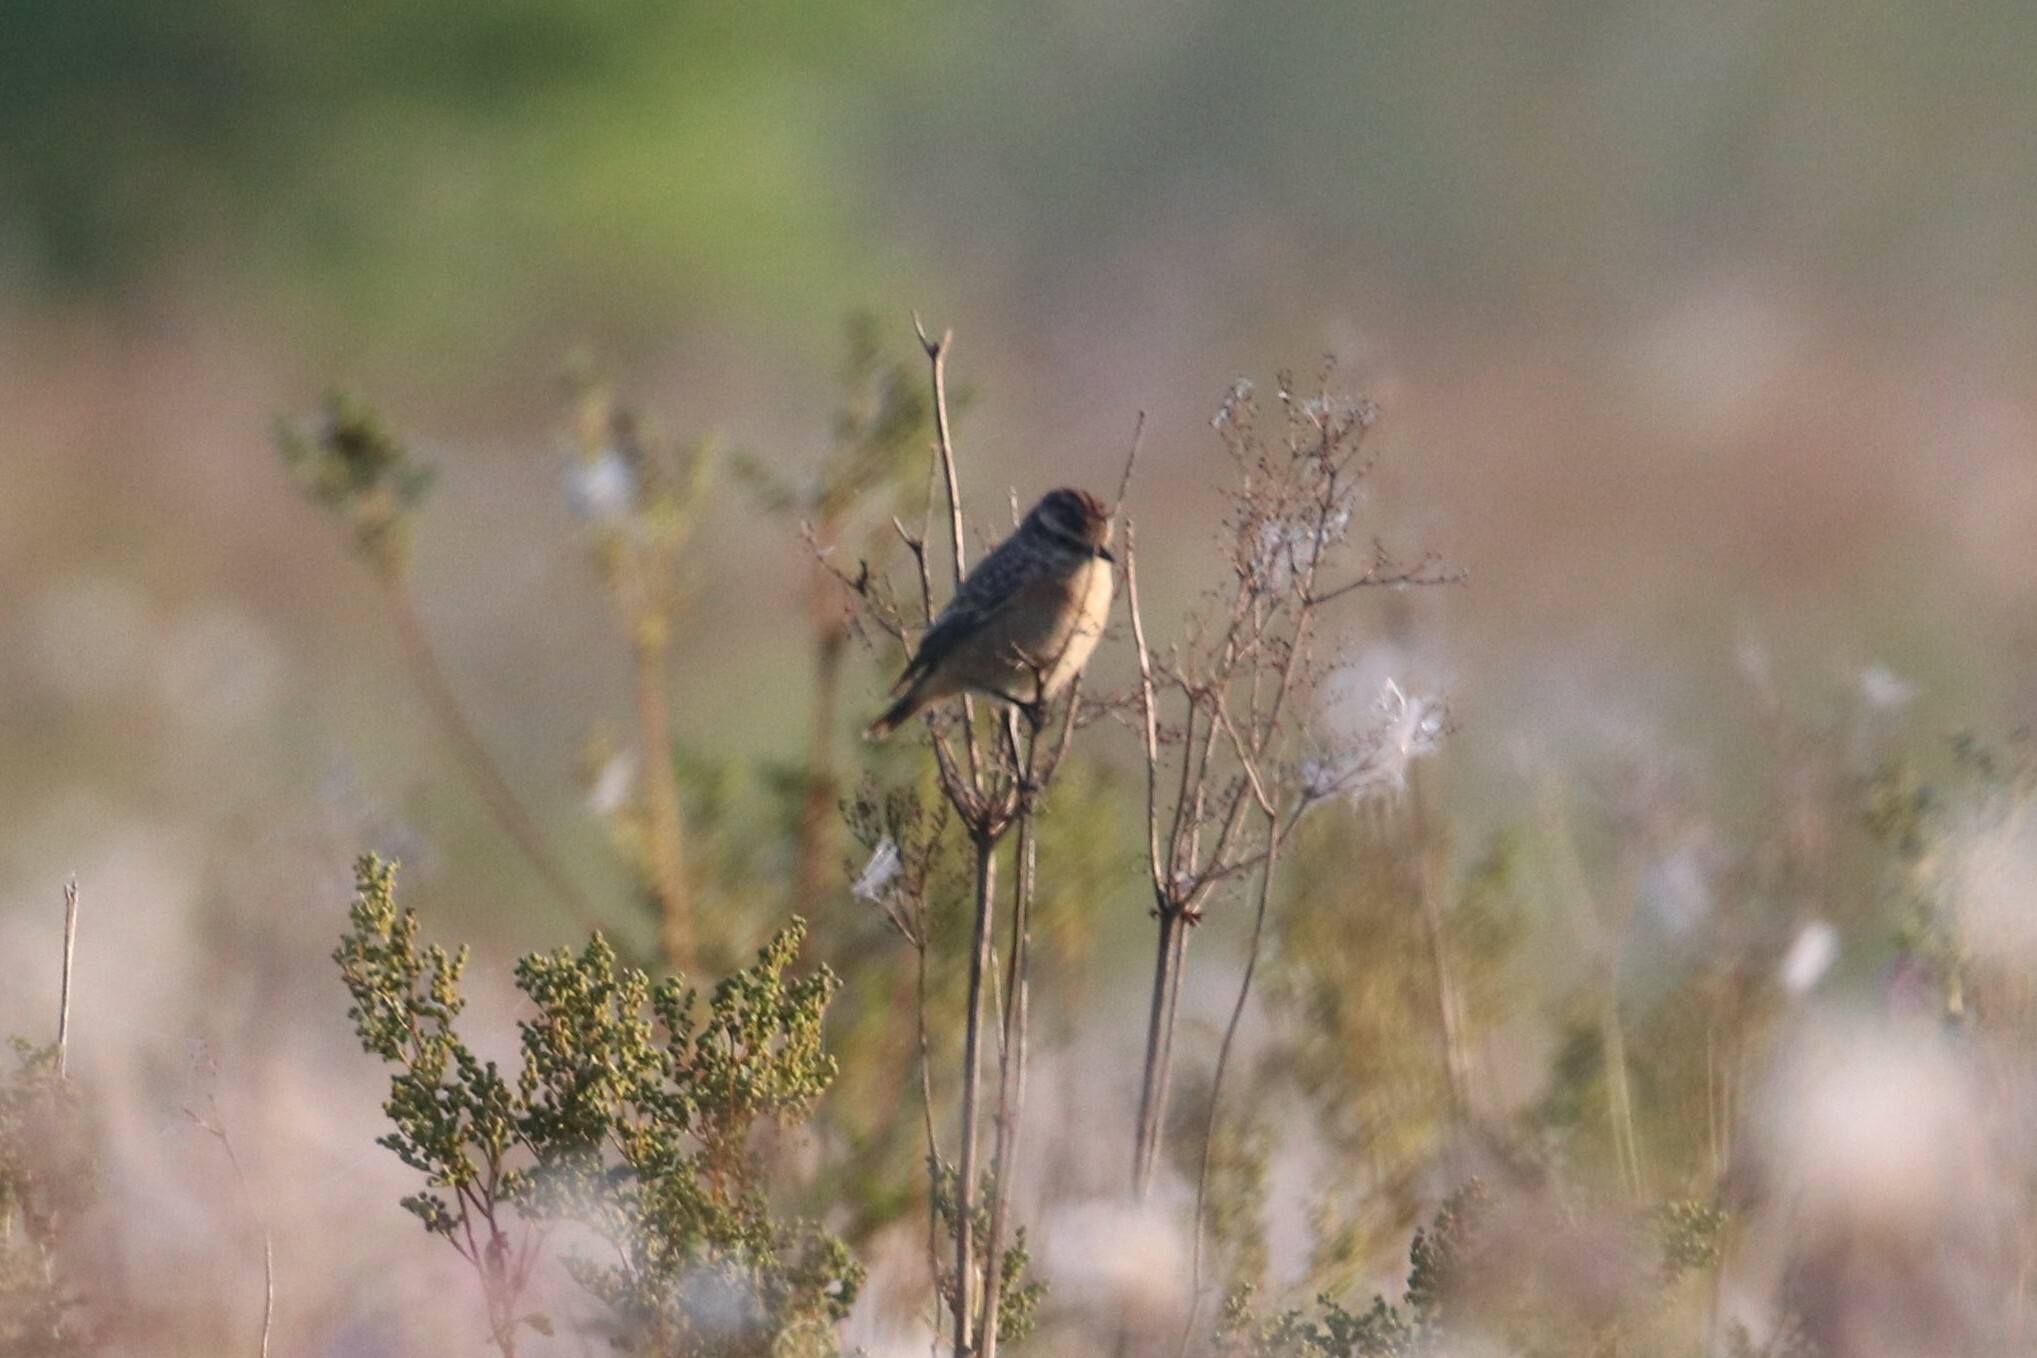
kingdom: Animalia
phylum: Chordata
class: Aves
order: Passeriformes
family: Muscicapidae
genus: Saxicola
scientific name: Saxicola rubetra
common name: Whinchat
